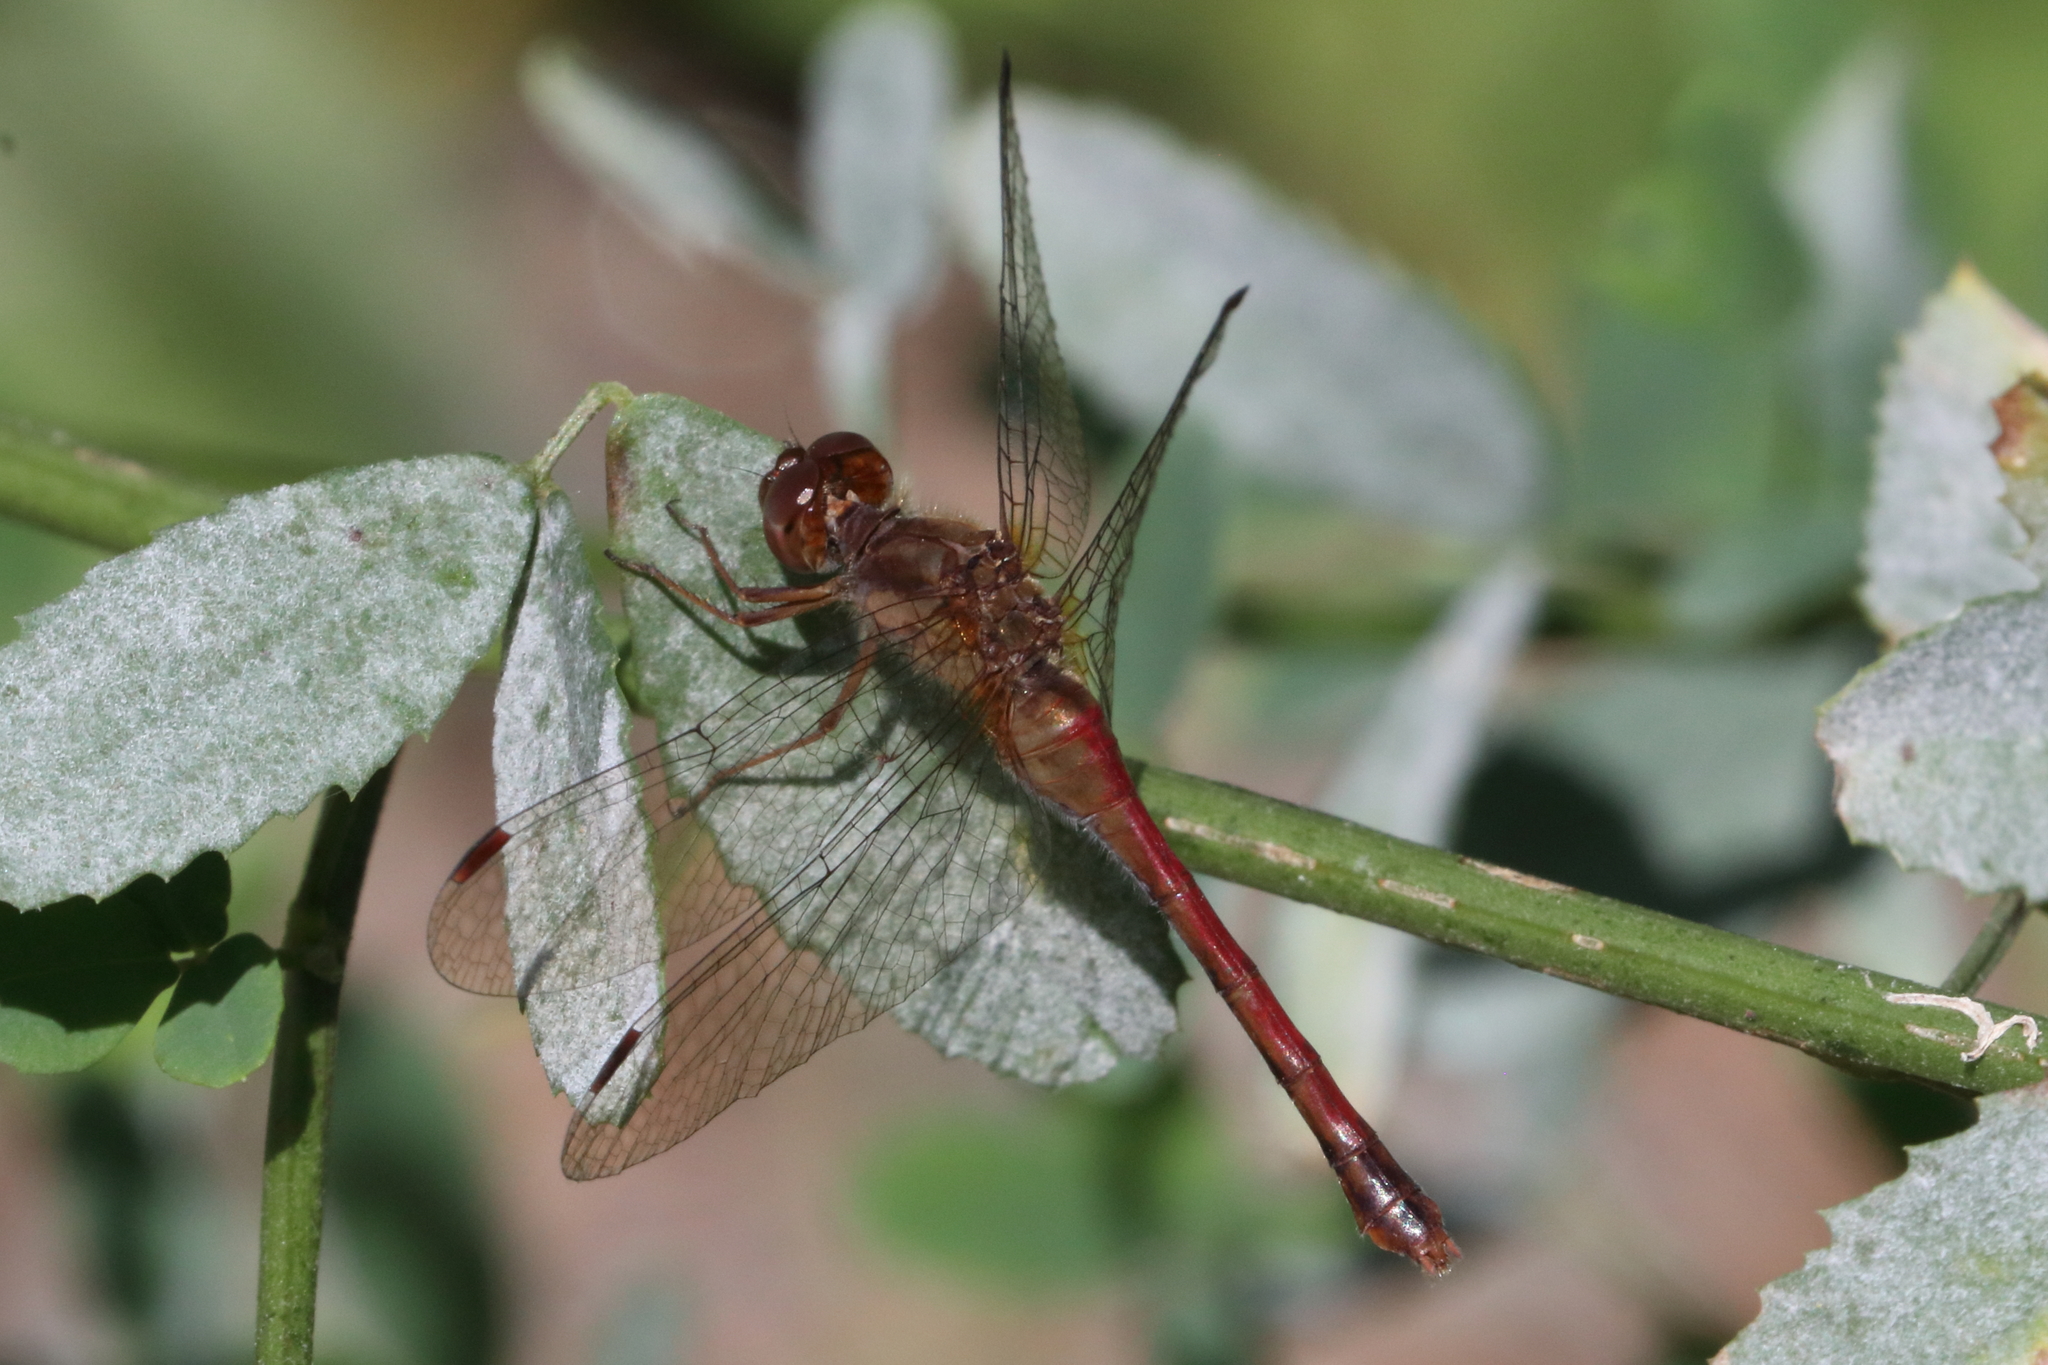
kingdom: Animalia
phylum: Arthropoda
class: Insecta
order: Odonata
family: Libellulidae
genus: Sympetrum
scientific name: Sympetrum vicinum
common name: Autumn meadowhawk
